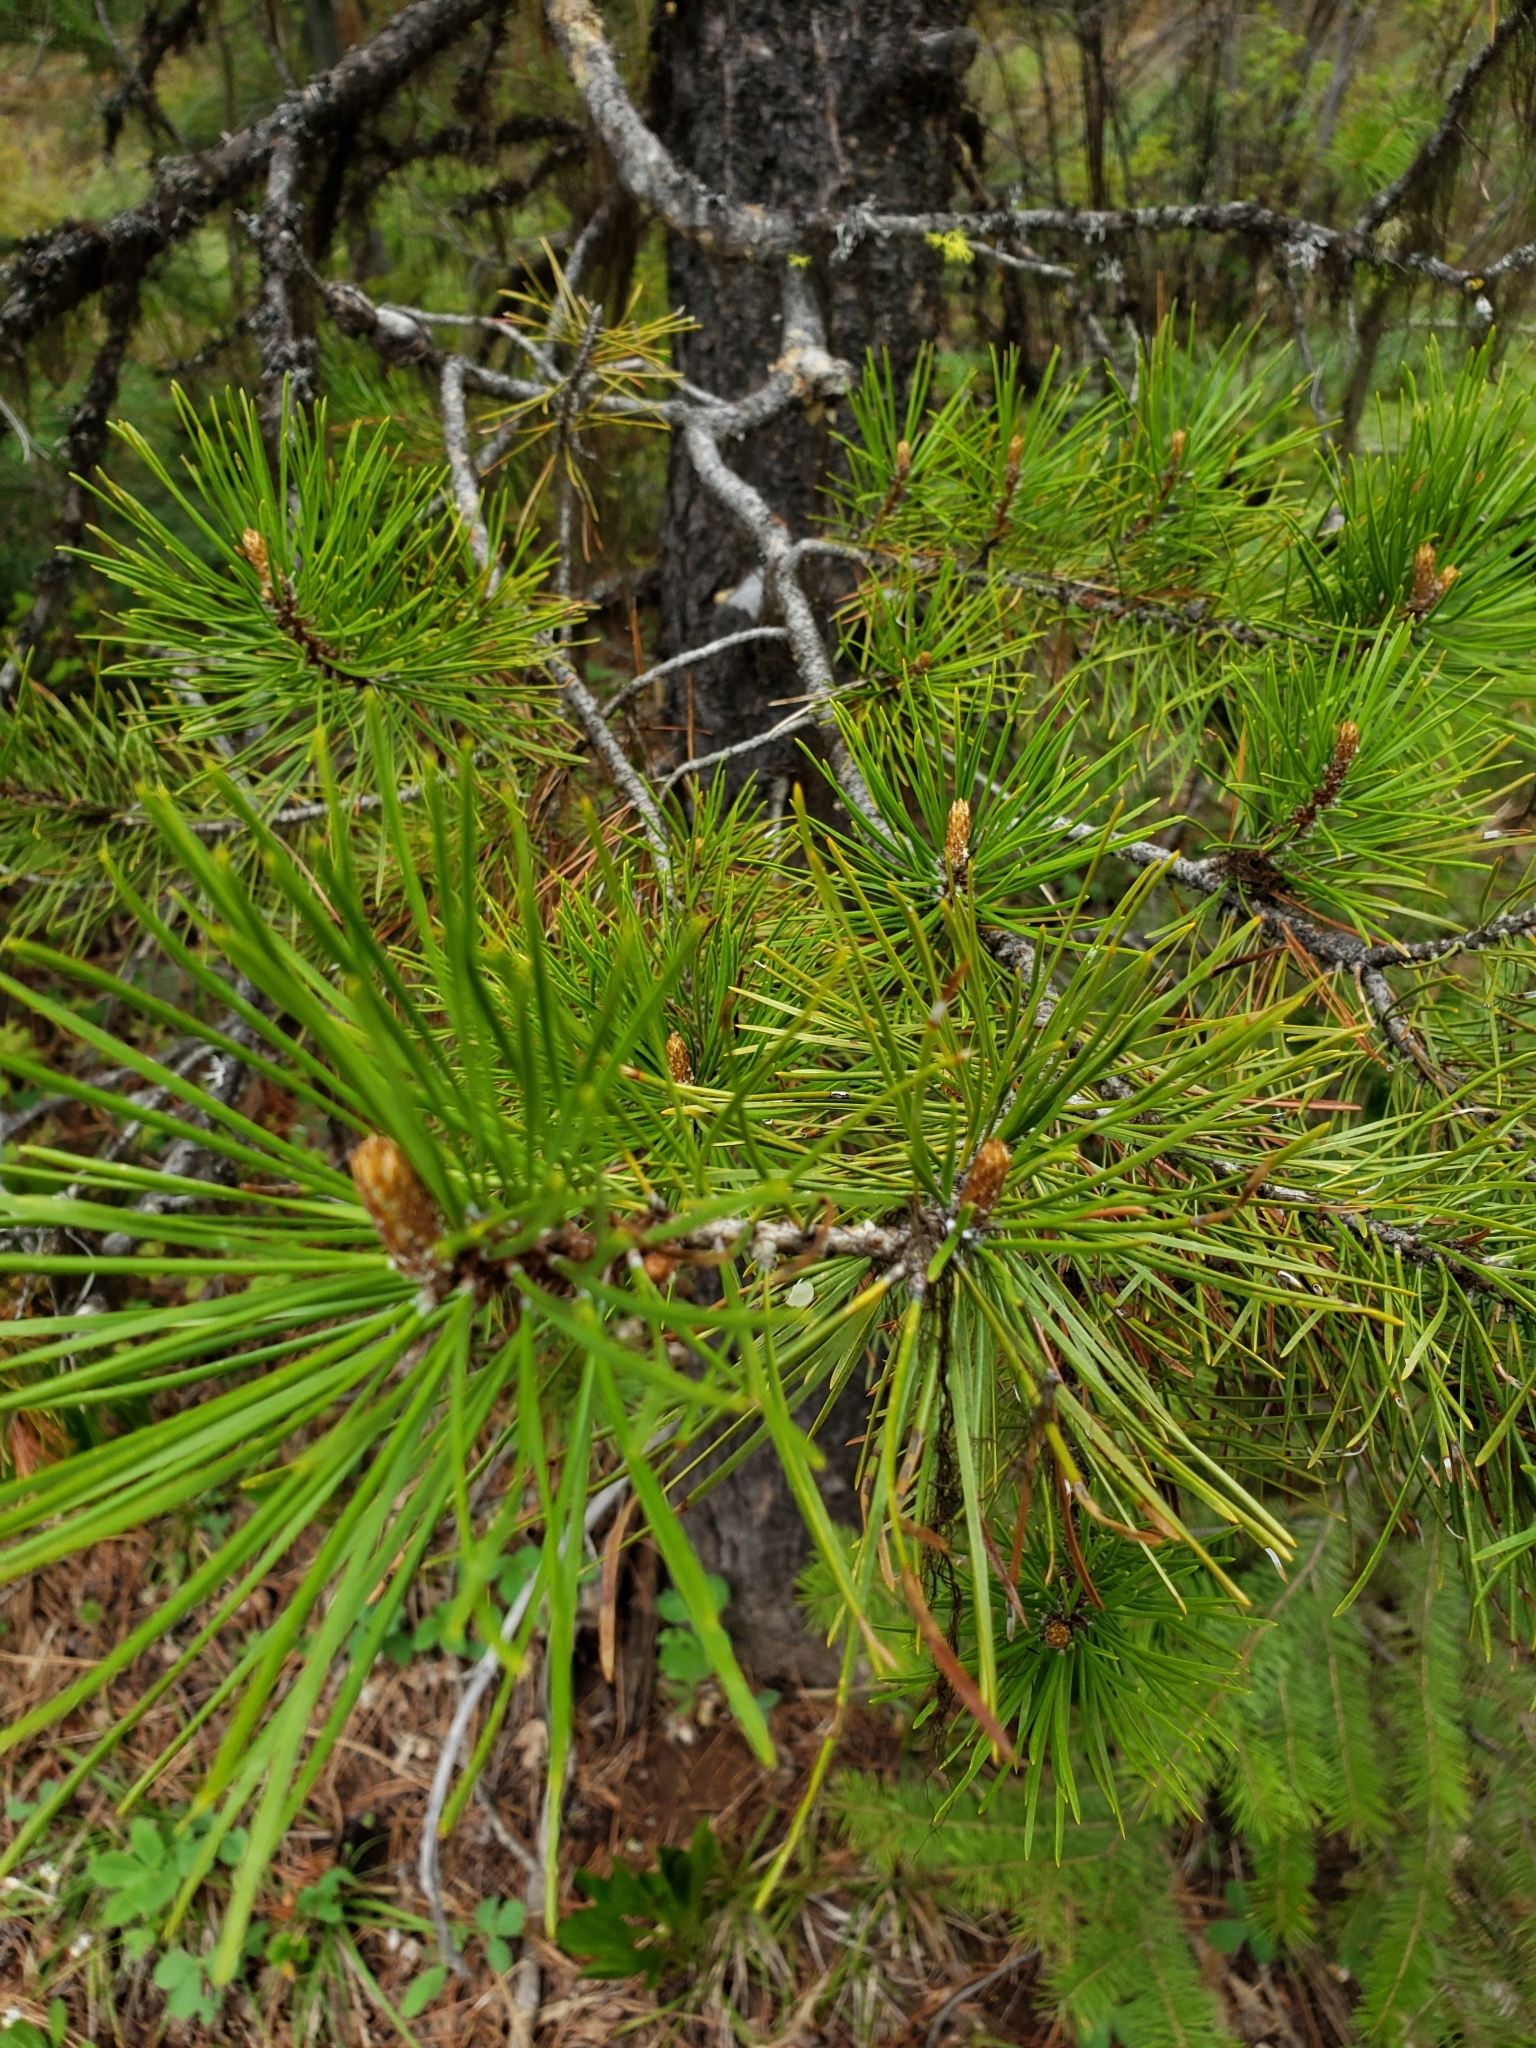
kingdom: Plantae
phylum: Tracheophyta
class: Pinopsida
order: Pinales
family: Pinaceae
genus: Pinus
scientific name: Pinus contorta
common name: Lodgepole pine
